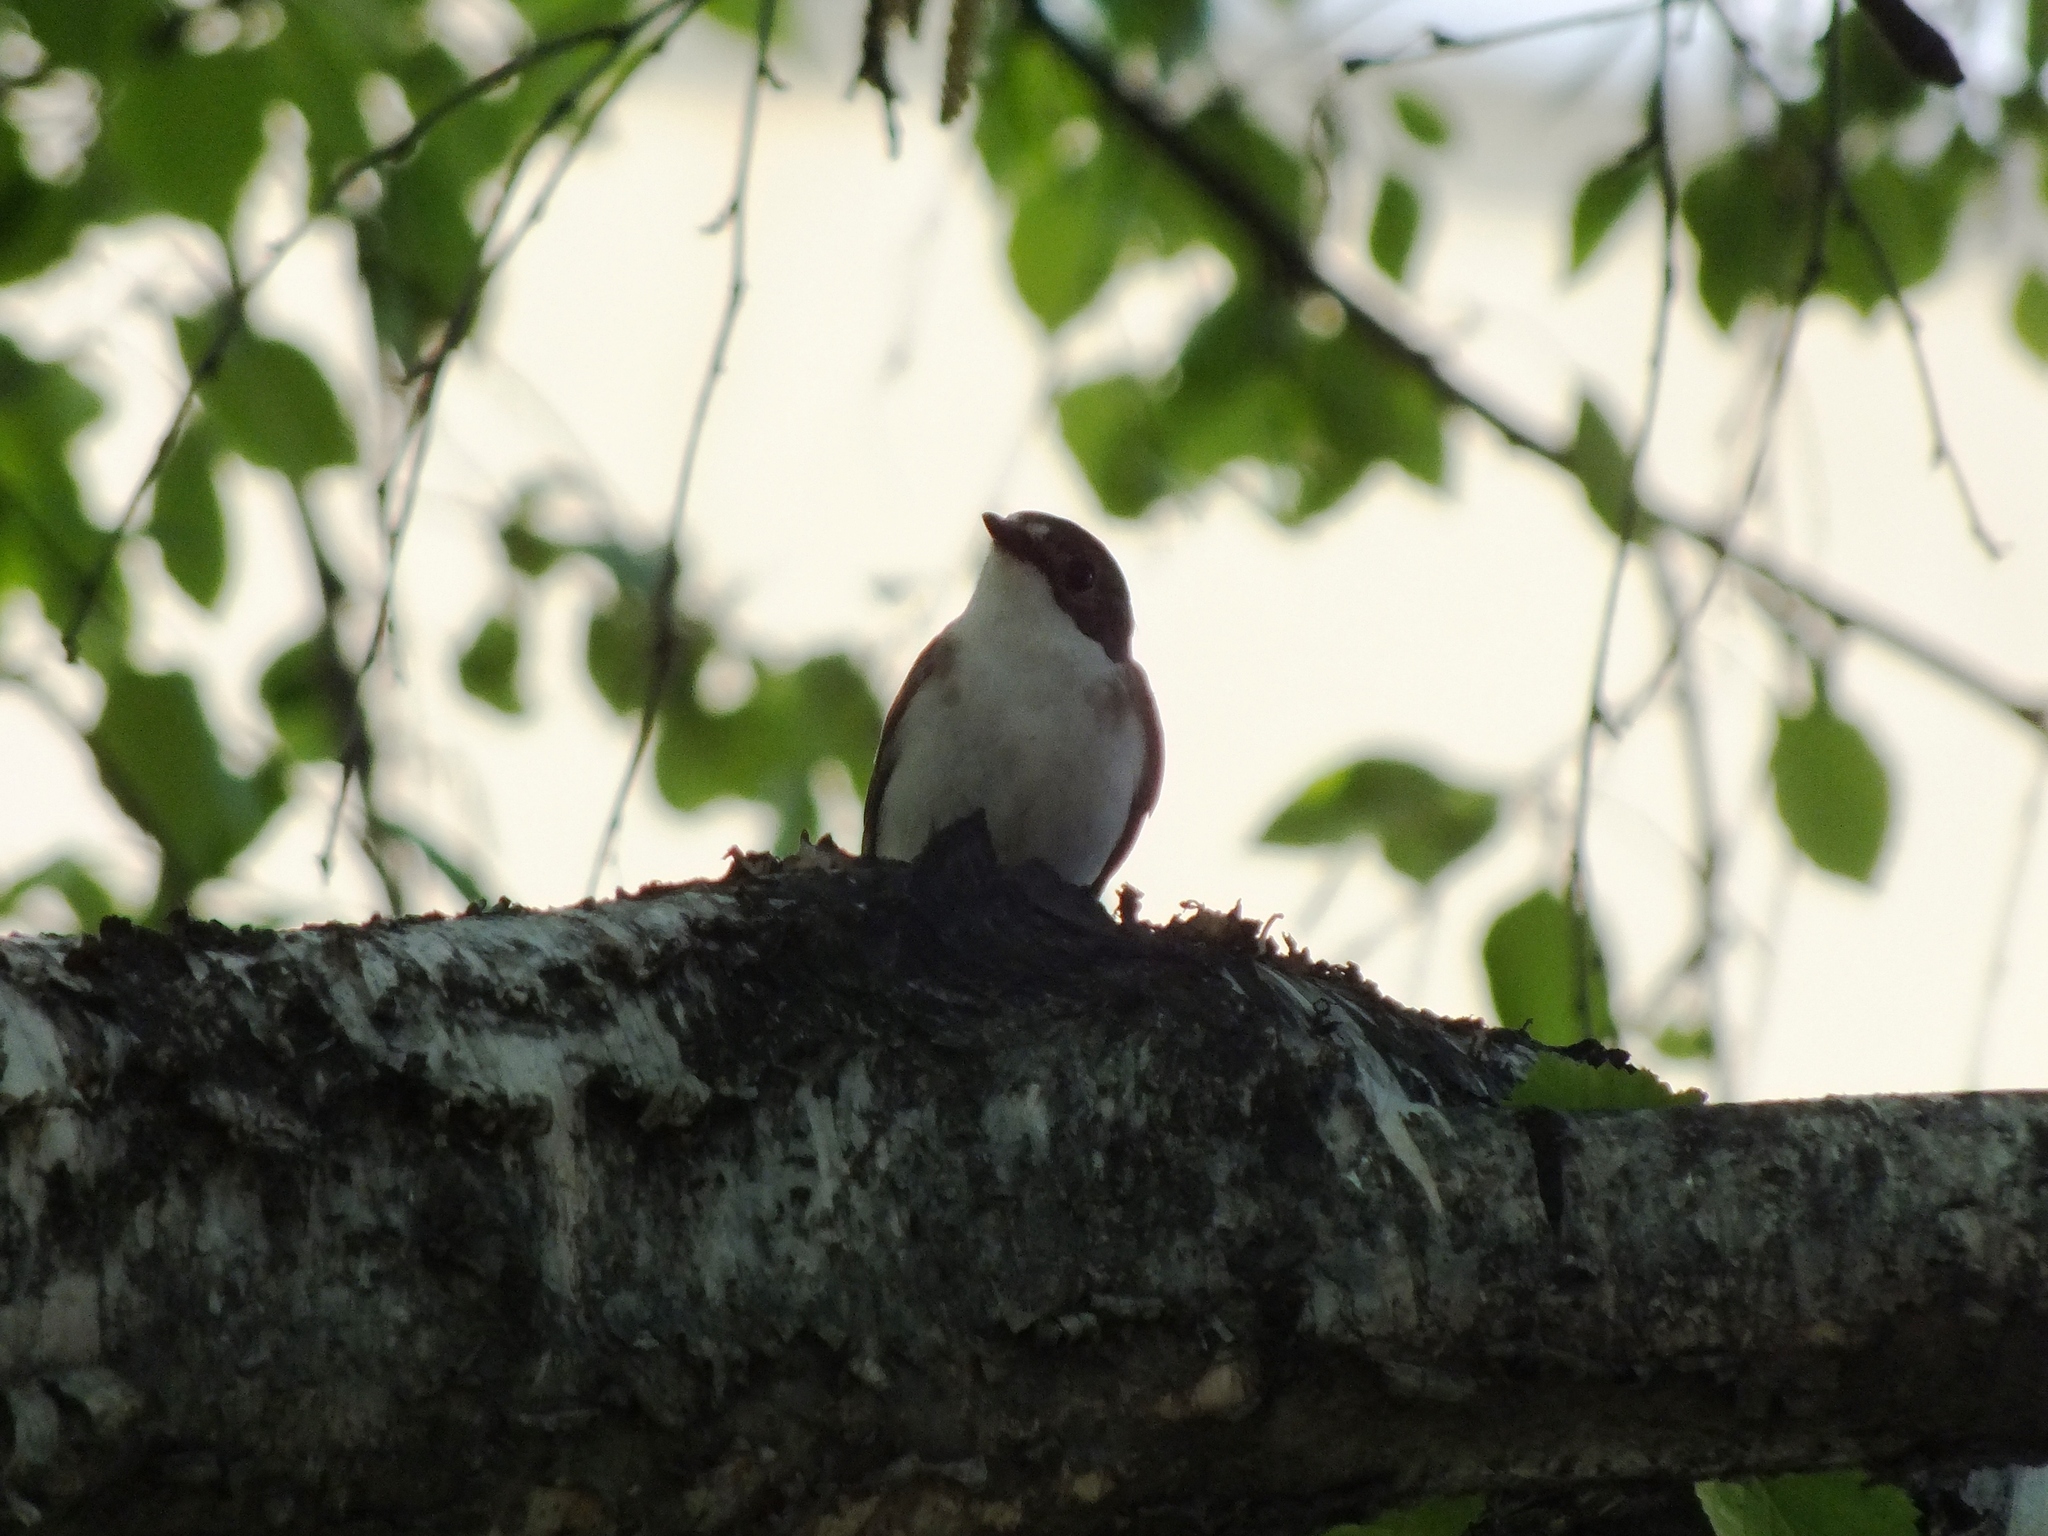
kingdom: Animalia
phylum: Chordata
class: Aves
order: Passeriformes
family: Muscicapidae
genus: Ficedula
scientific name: Ficedula hypoleuca
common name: European pied flycatcher
